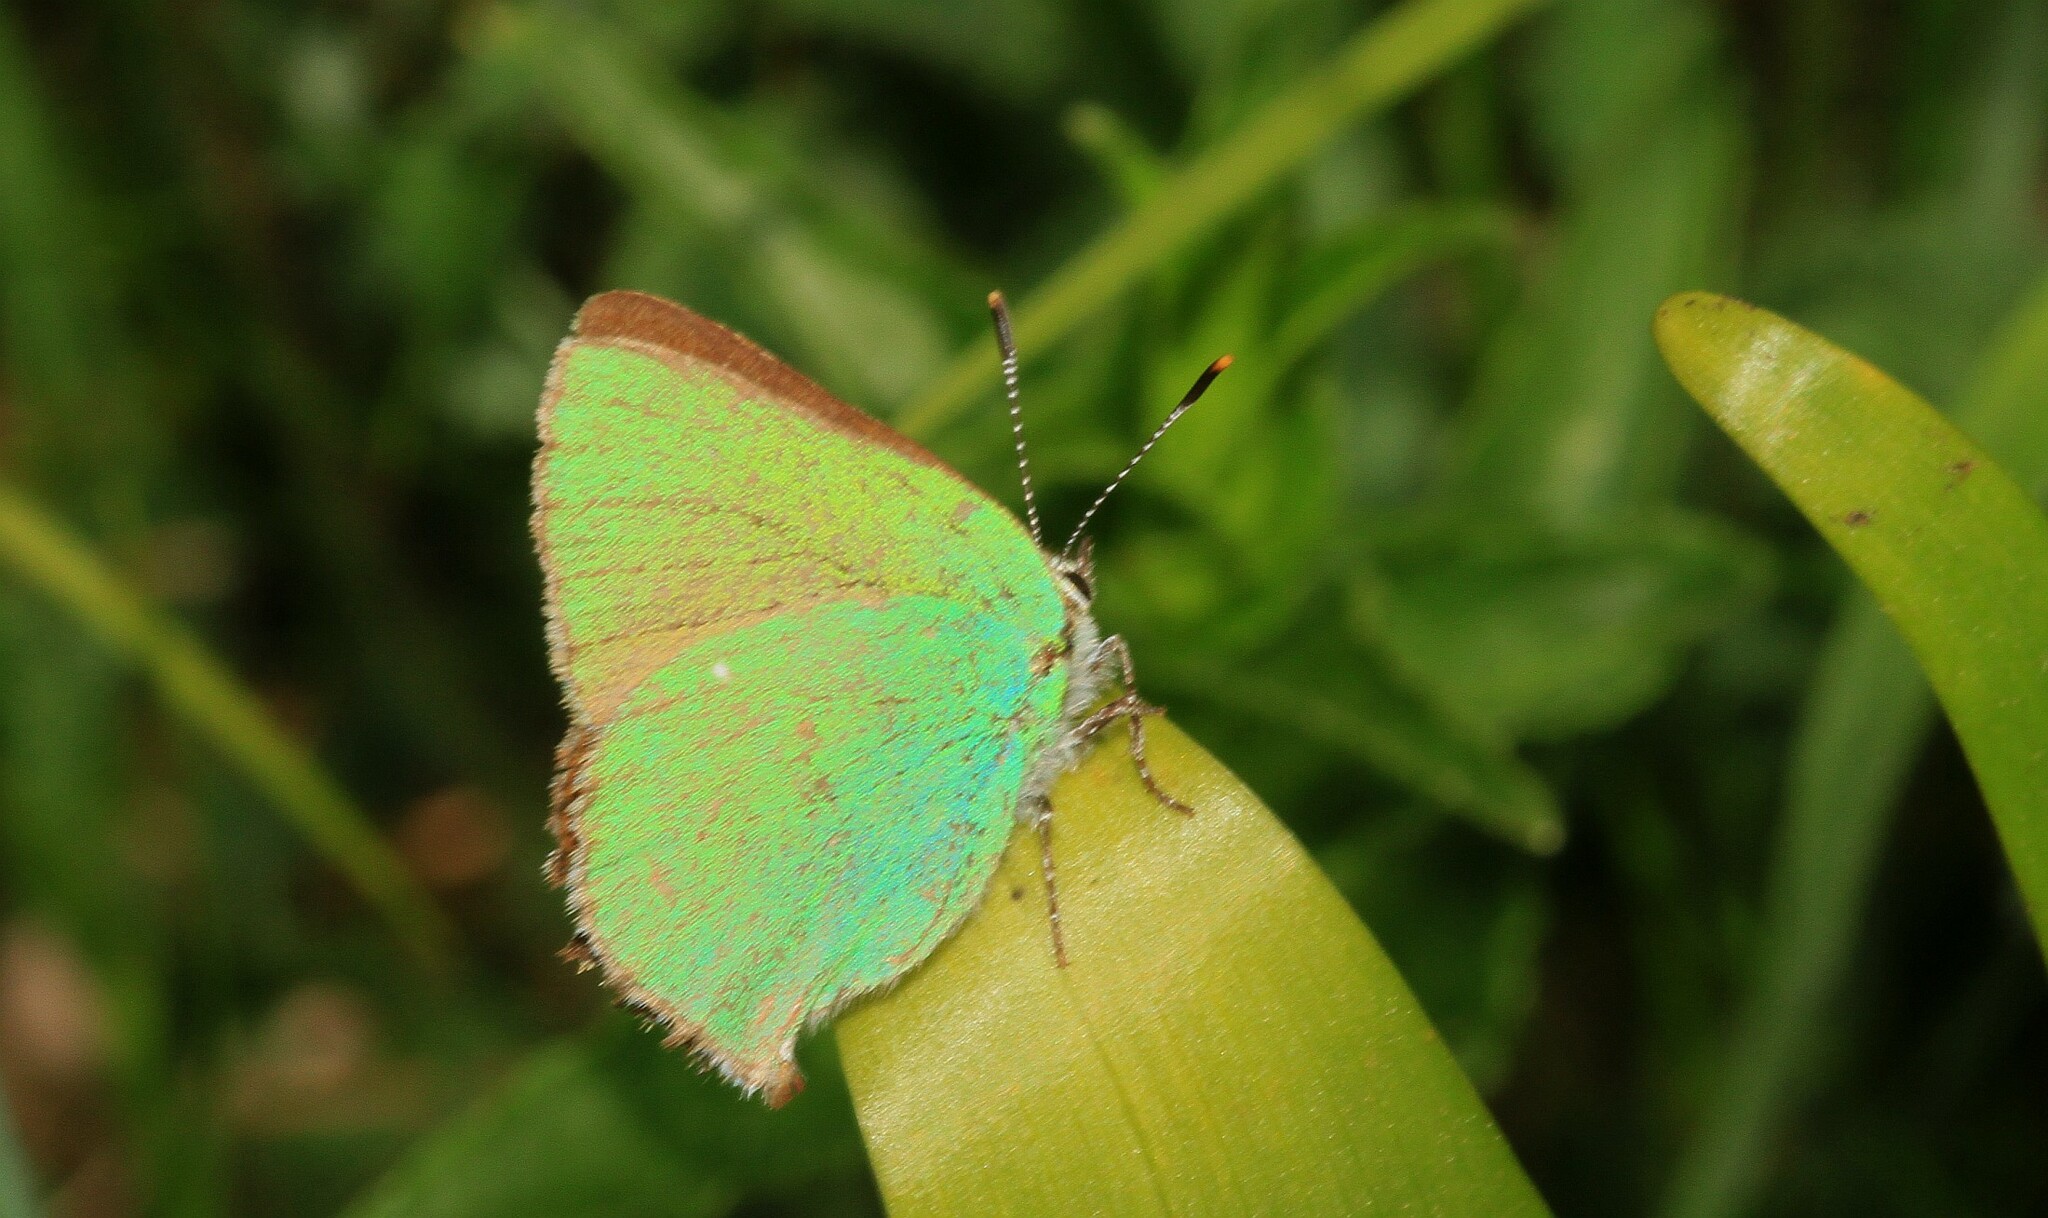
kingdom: Animalia
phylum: Arthropoda
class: Insecta
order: Lepidoptera
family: Lycaenidae
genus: Callophrys
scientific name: Callophrys rubi
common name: Green hairstreak
